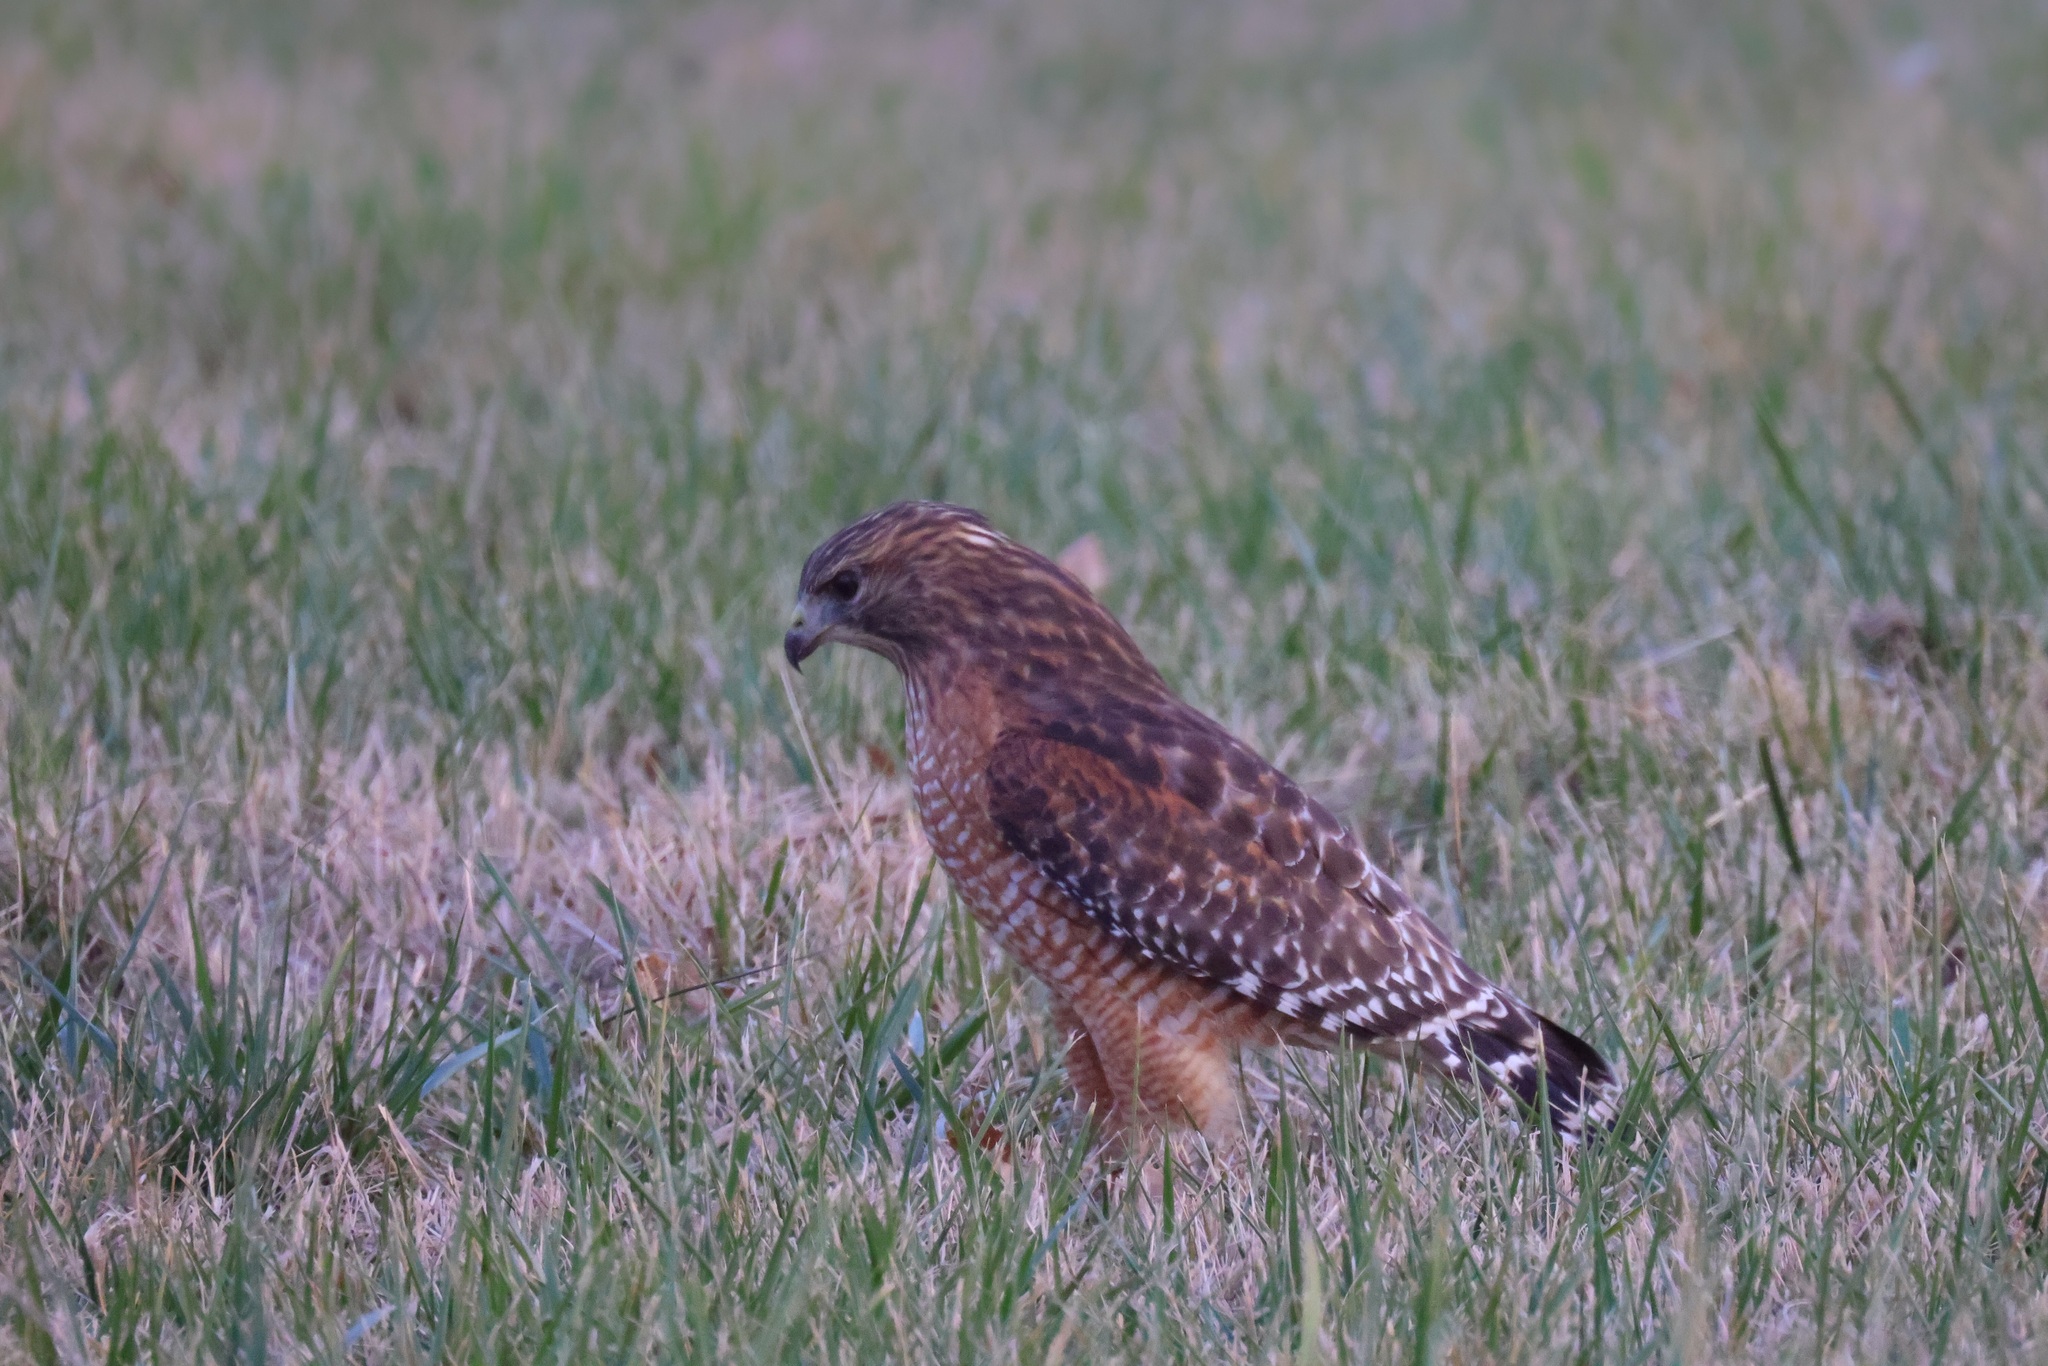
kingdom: Animalia
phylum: Chordata
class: Aves
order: Accipitriformes
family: Accipitridae
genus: Buteo
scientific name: Buteo lineatus
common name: Red-shouldered hawk
